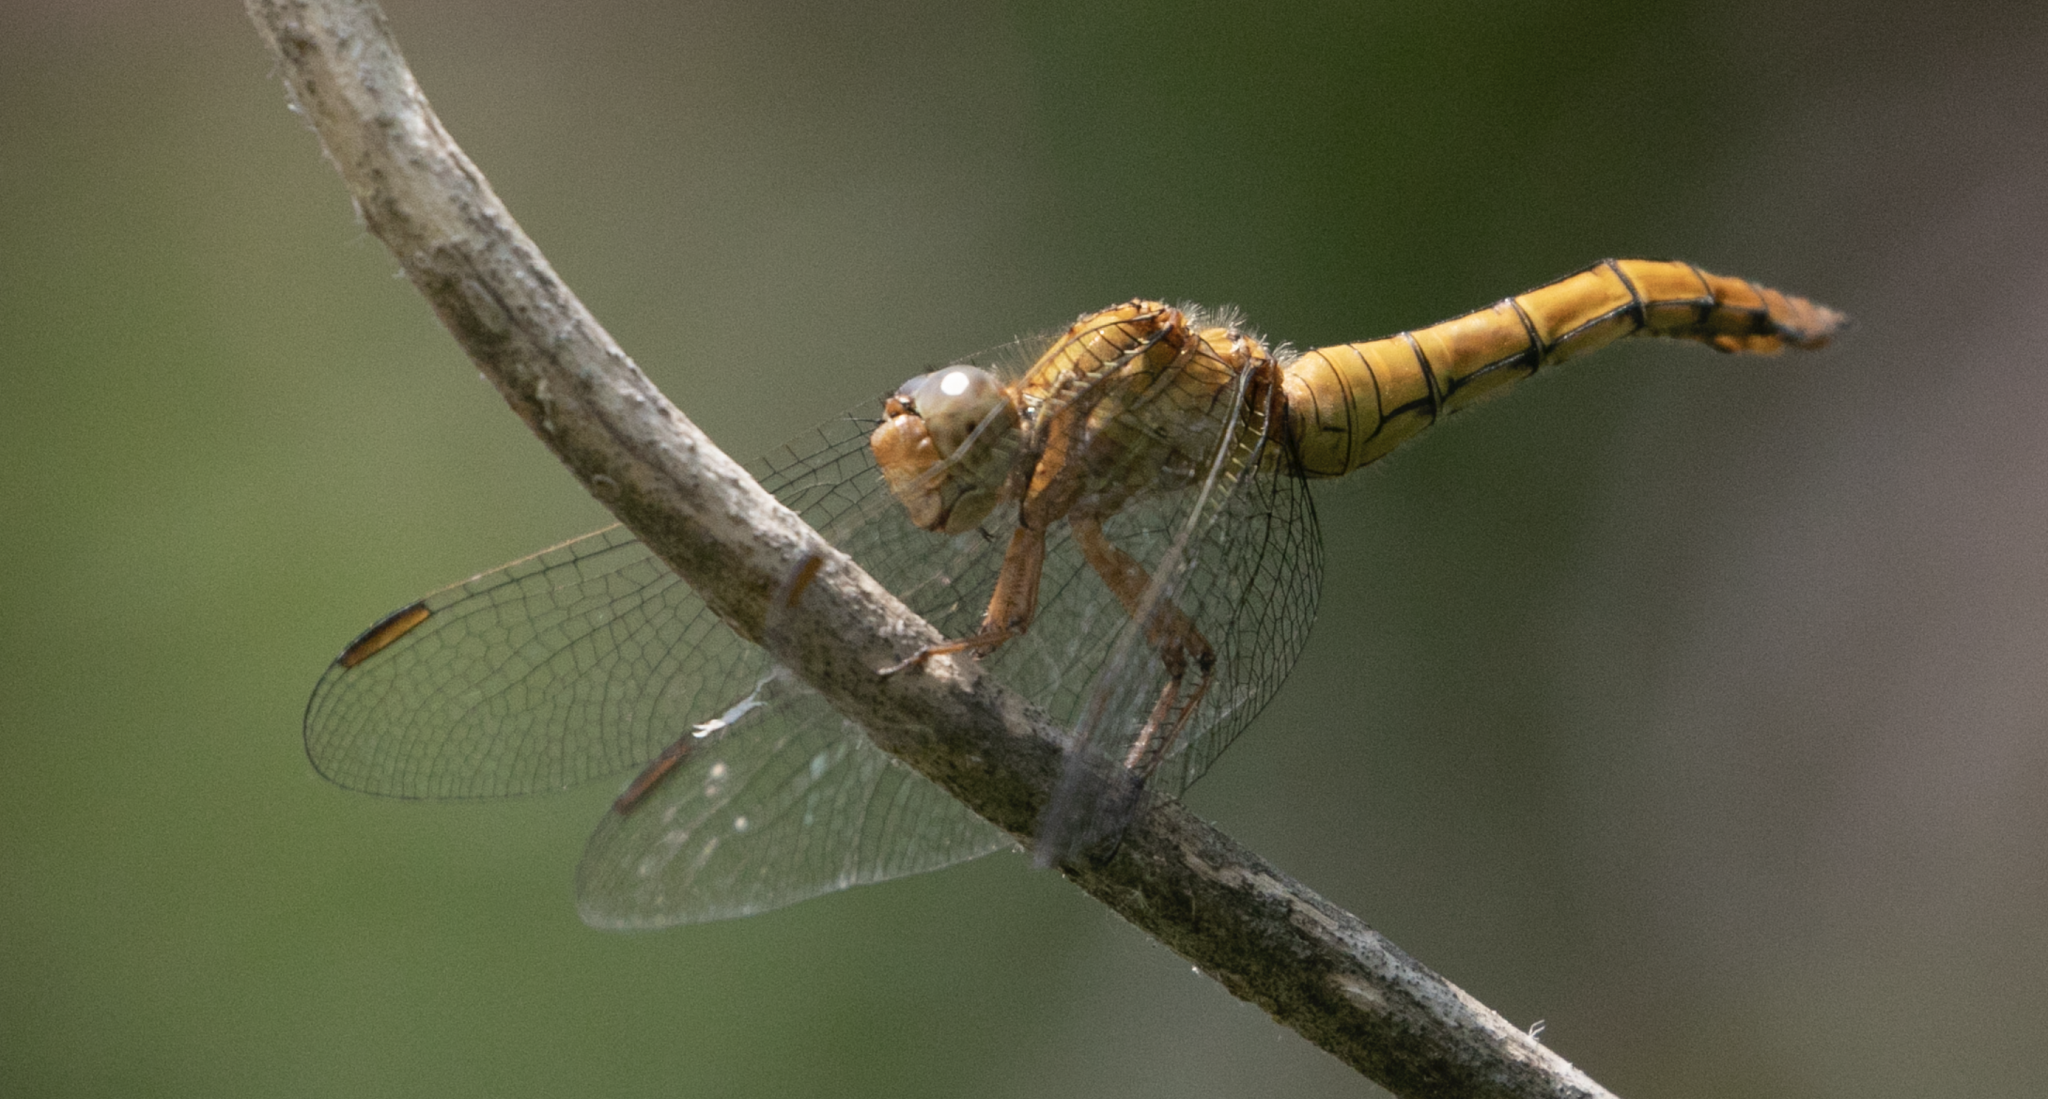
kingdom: Animalia
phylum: Arthropoda
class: Insecta
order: Odonata
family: Libellulidae
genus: Orthetrum
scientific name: Orthetrum coerulescens
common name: Keeled skimmer
